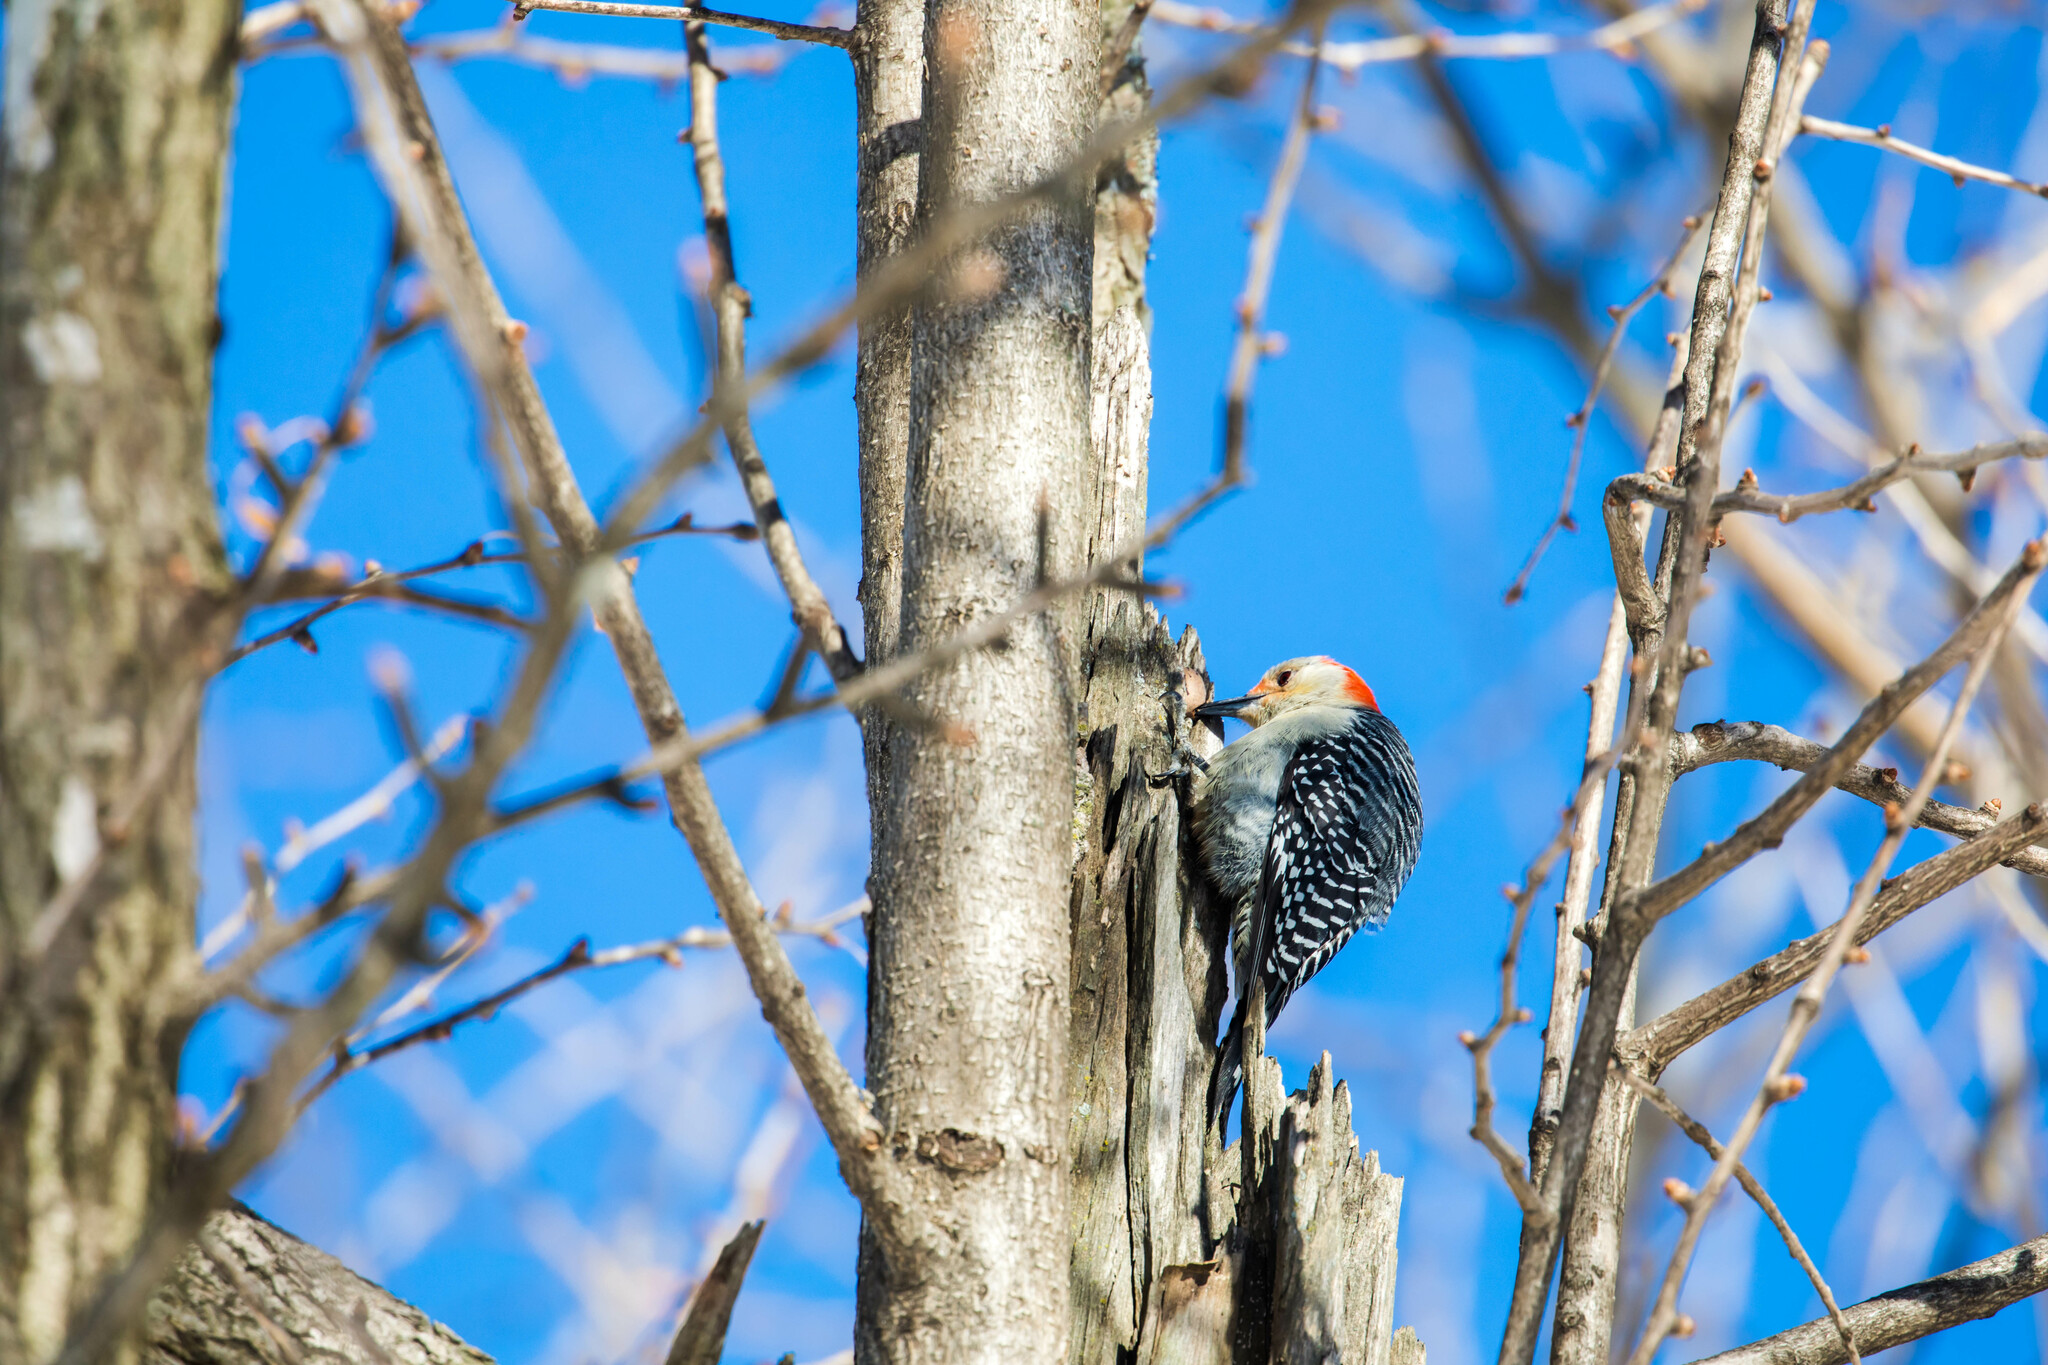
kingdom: Animalia
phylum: Chordata
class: Aves
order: Piciformes
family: Picidae
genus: Melanerpes
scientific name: Melanerpes carolinus
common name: Red-bellied woodpecker
